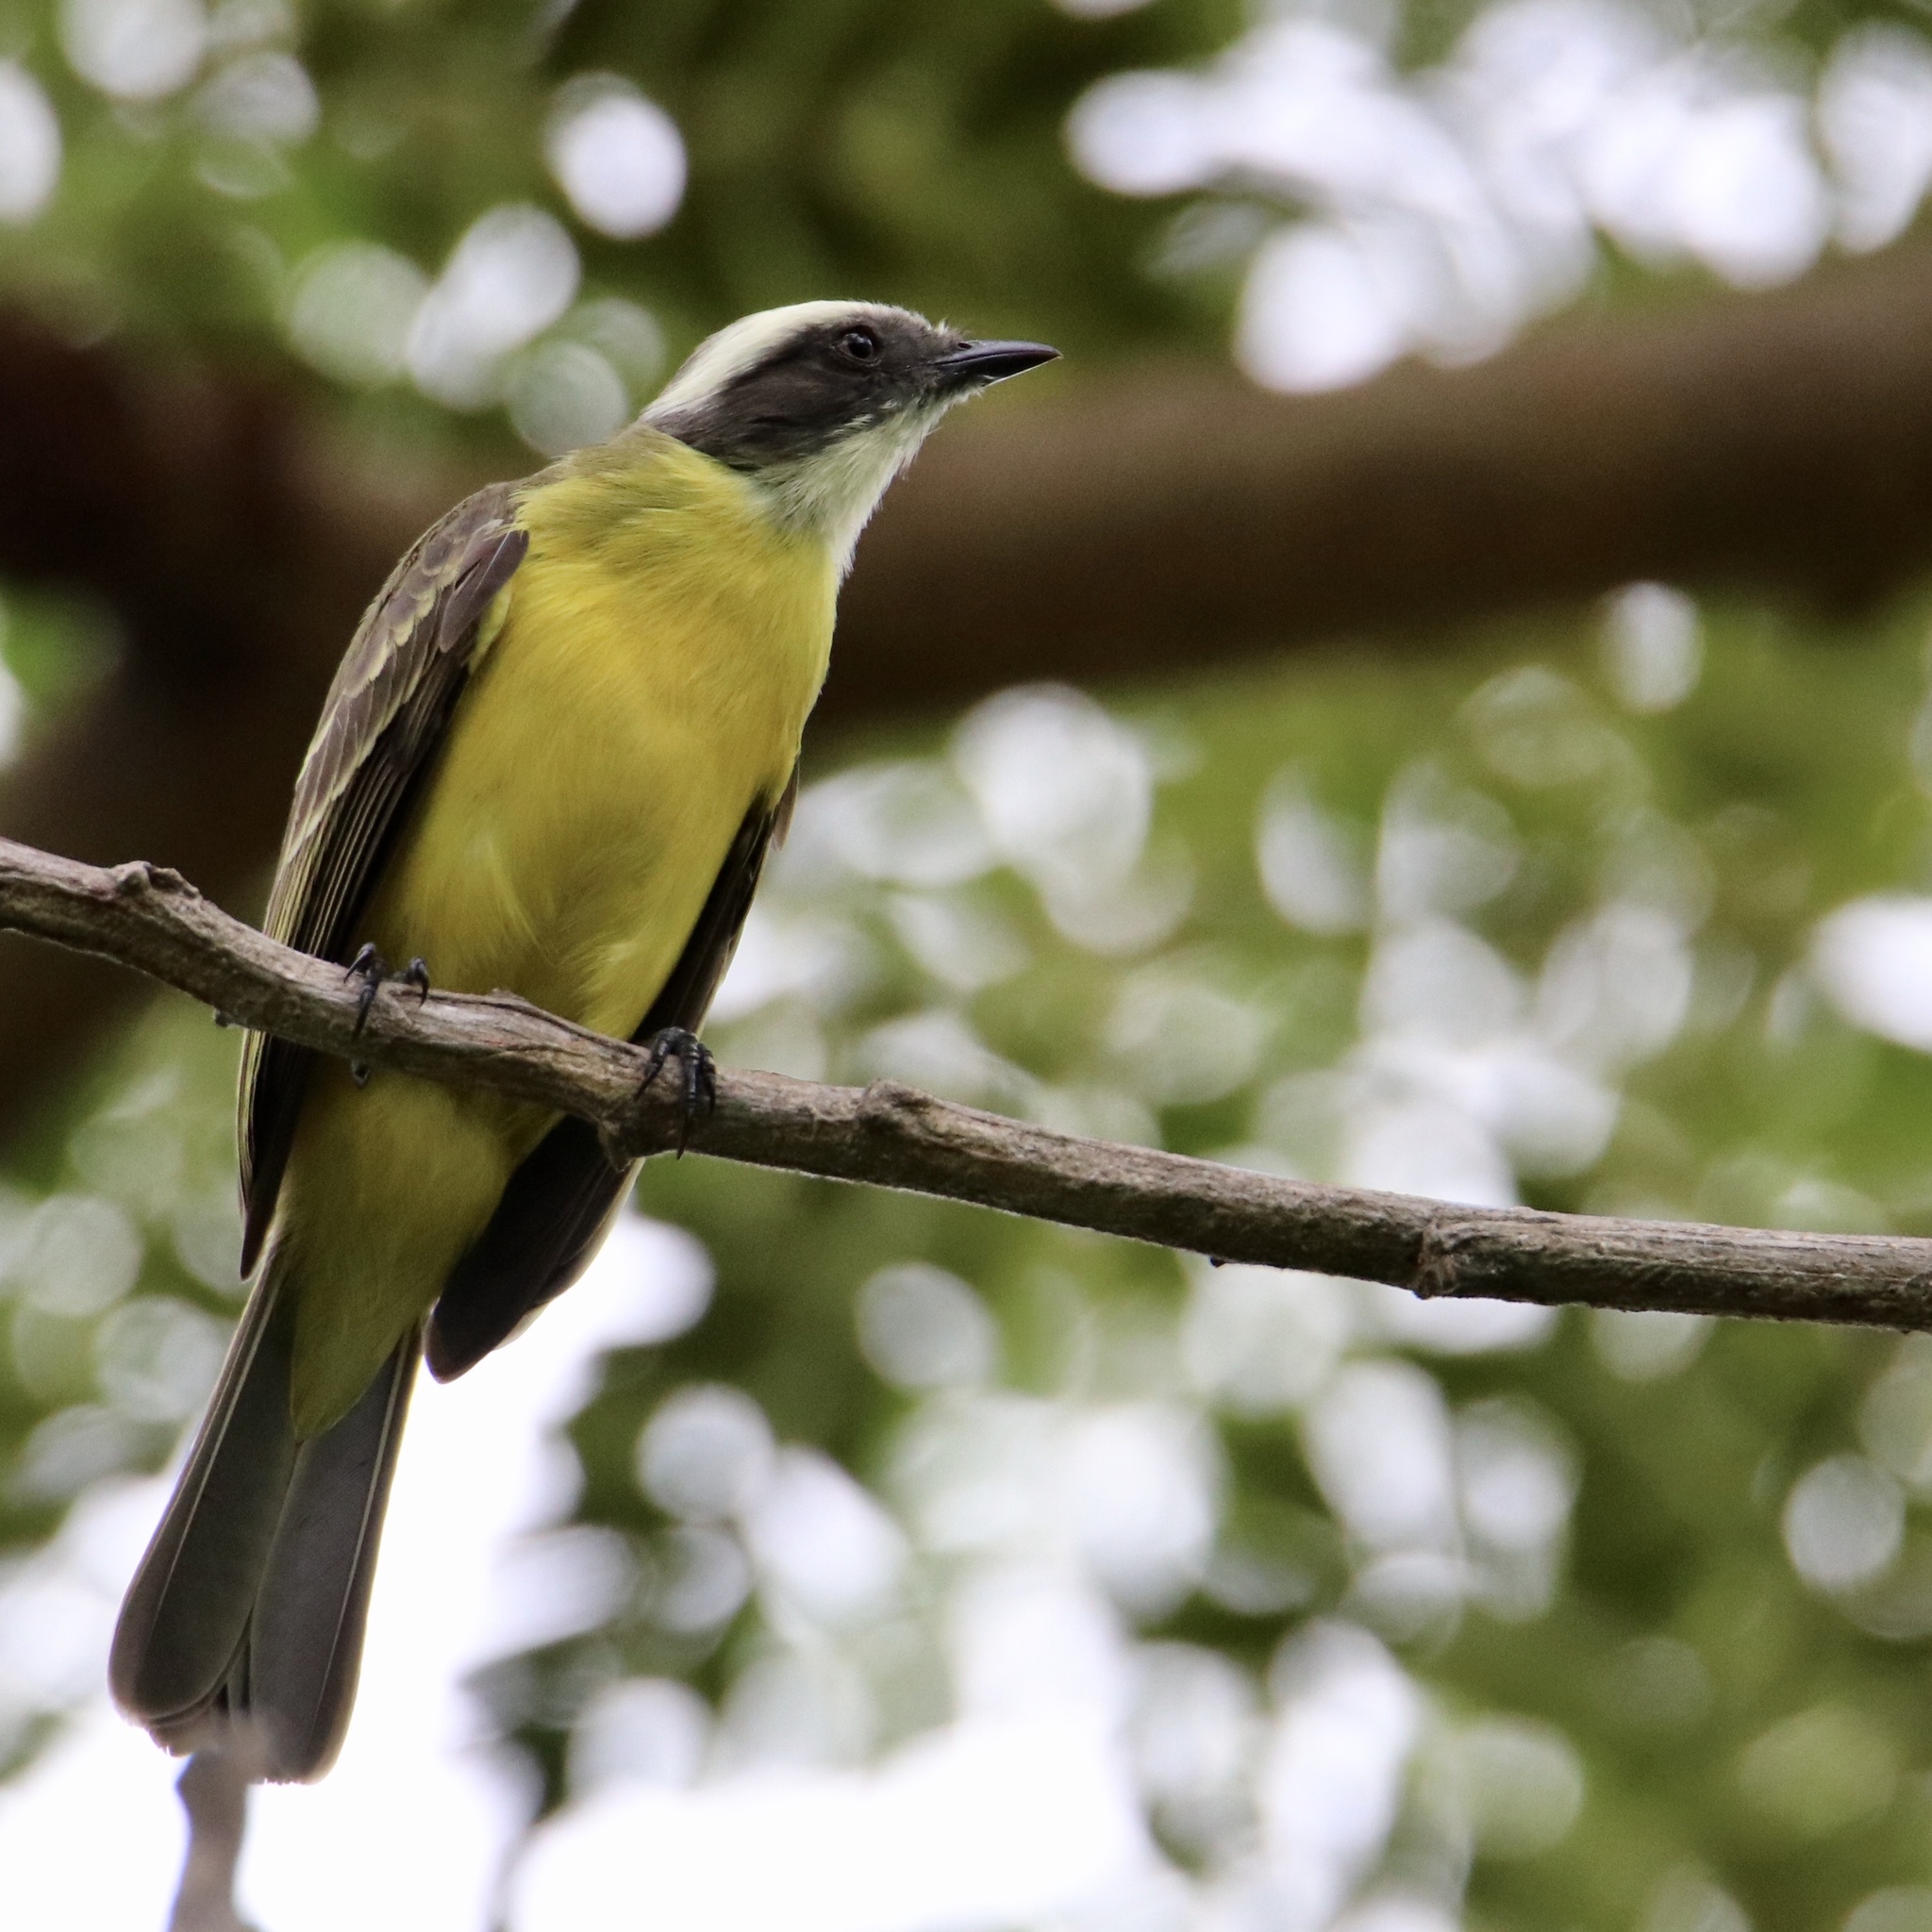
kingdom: Animalia
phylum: Chordata
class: Aves
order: Passeriformes
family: Tyrannidae
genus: Myiozetetes
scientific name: Myiozetetes similis
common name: Social flycatcher
